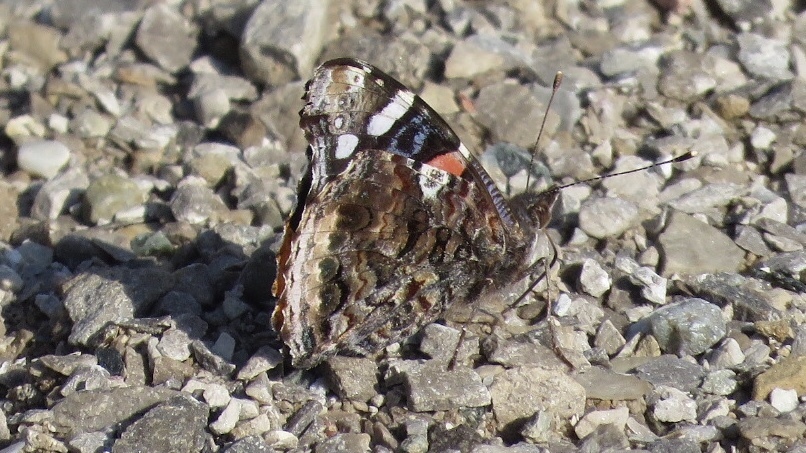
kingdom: Animalia
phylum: Arthropoda
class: Insecta
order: Lepidoptera
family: Nymphalidae
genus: Vanessa
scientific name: Vanessa atalanta
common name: Red admiral
